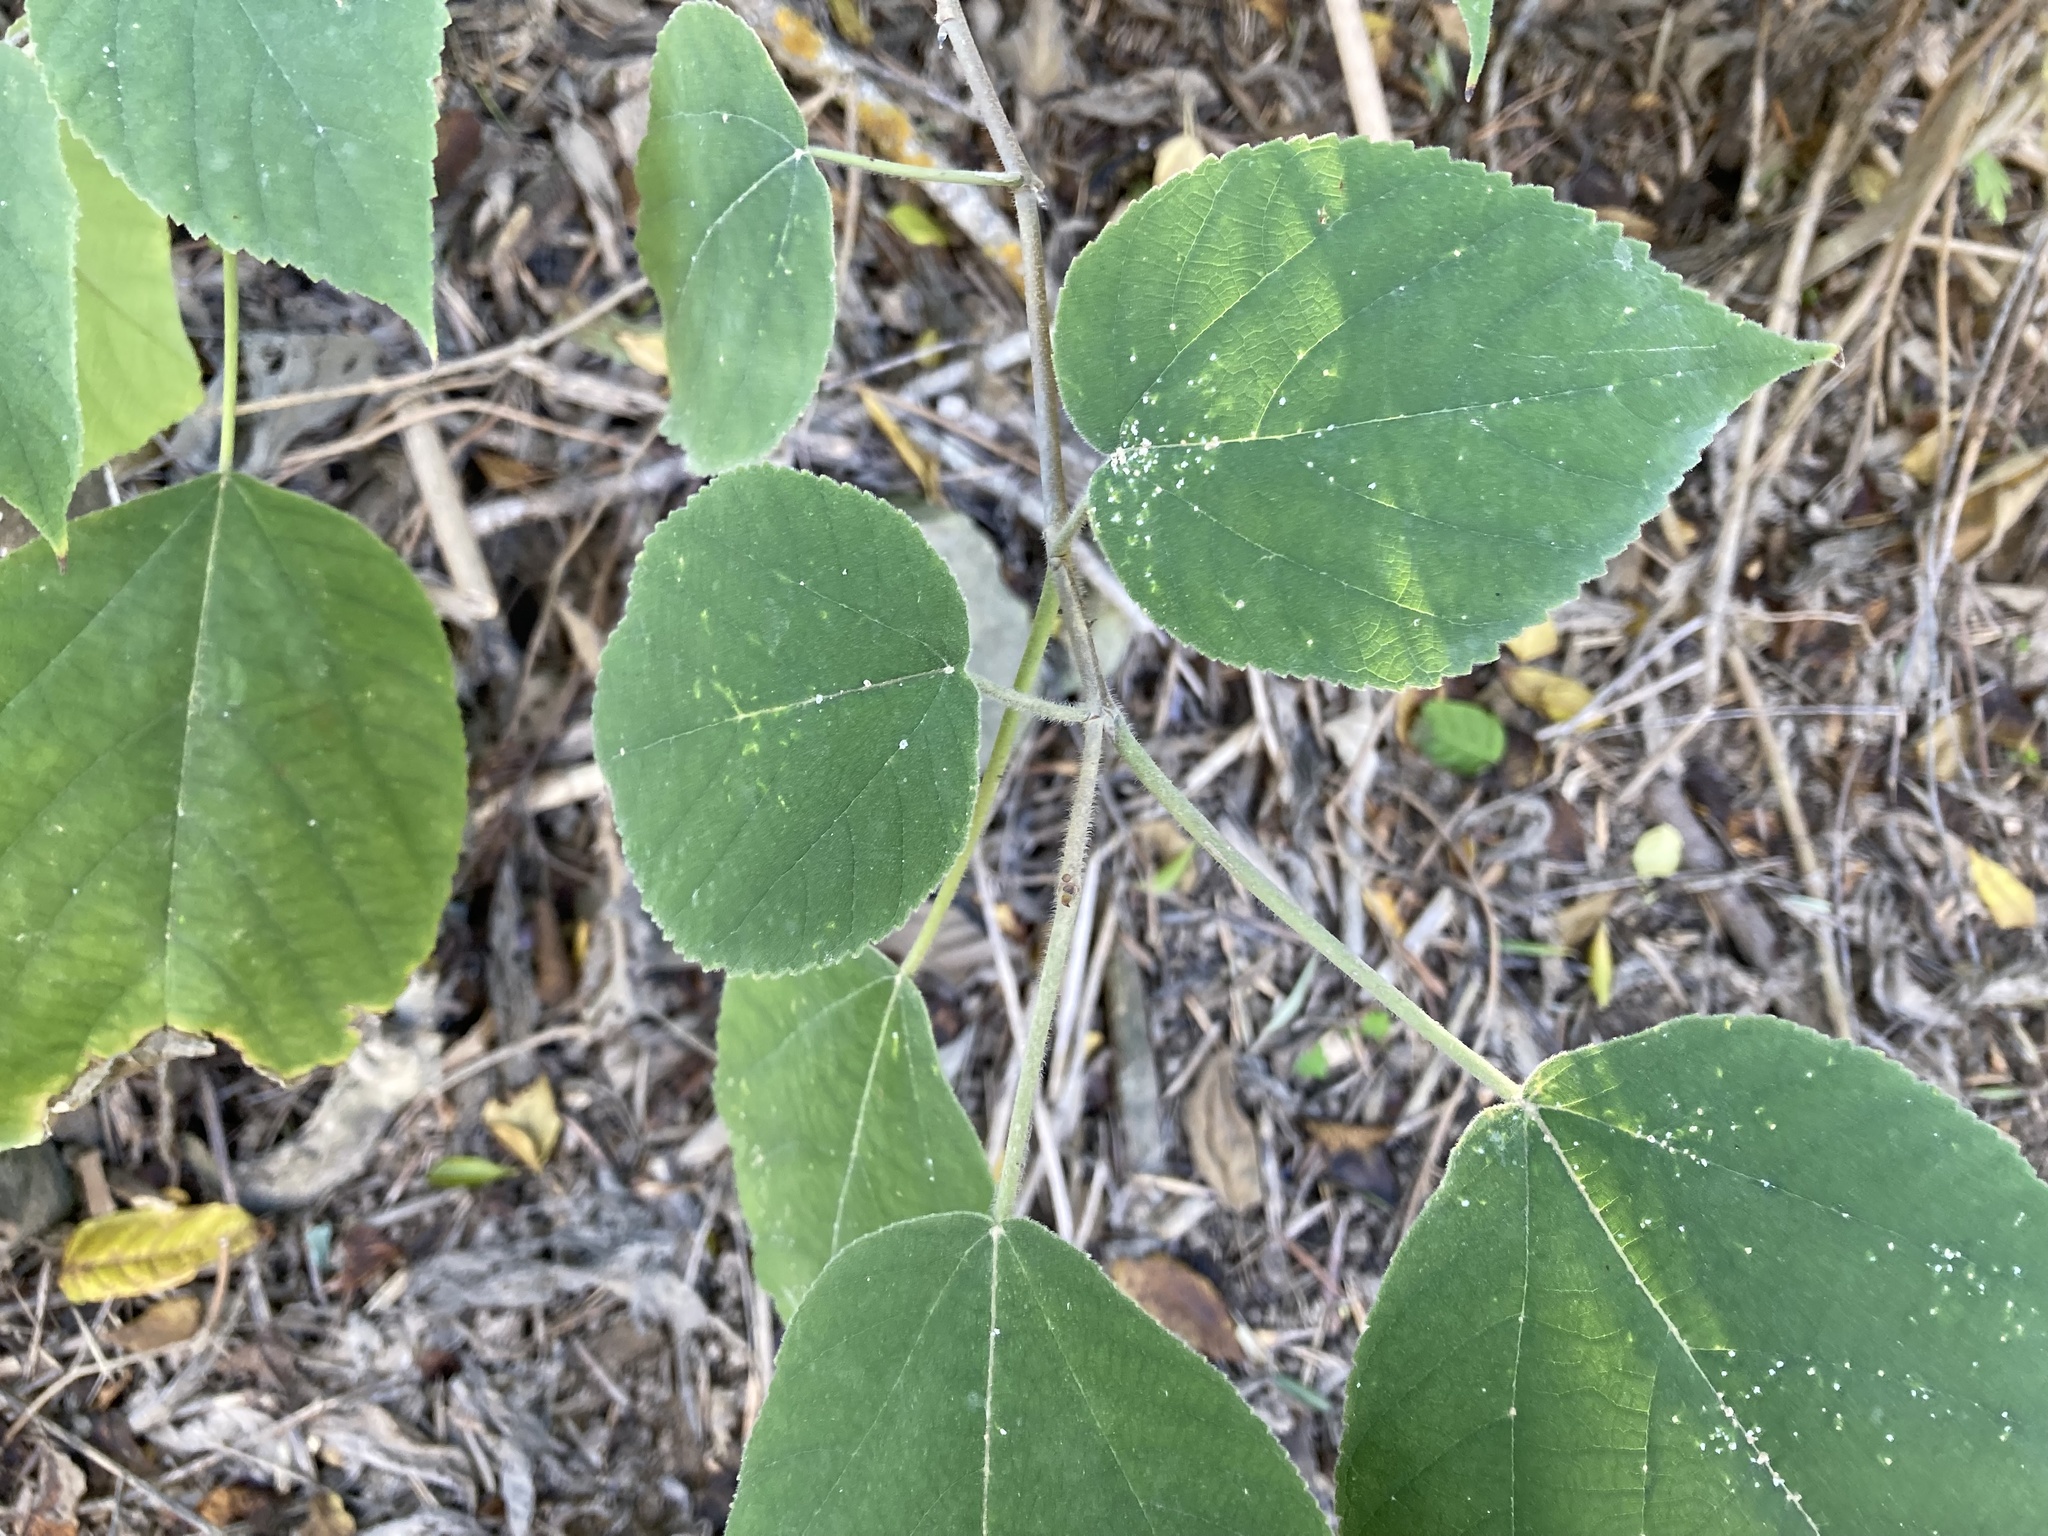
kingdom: Plantae
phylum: Tracheophyta
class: Magnoliopsida
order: Rosales
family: Moraceae
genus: Broussonetia
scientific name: Broussonetia papyrifera
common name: Paper mulberry
